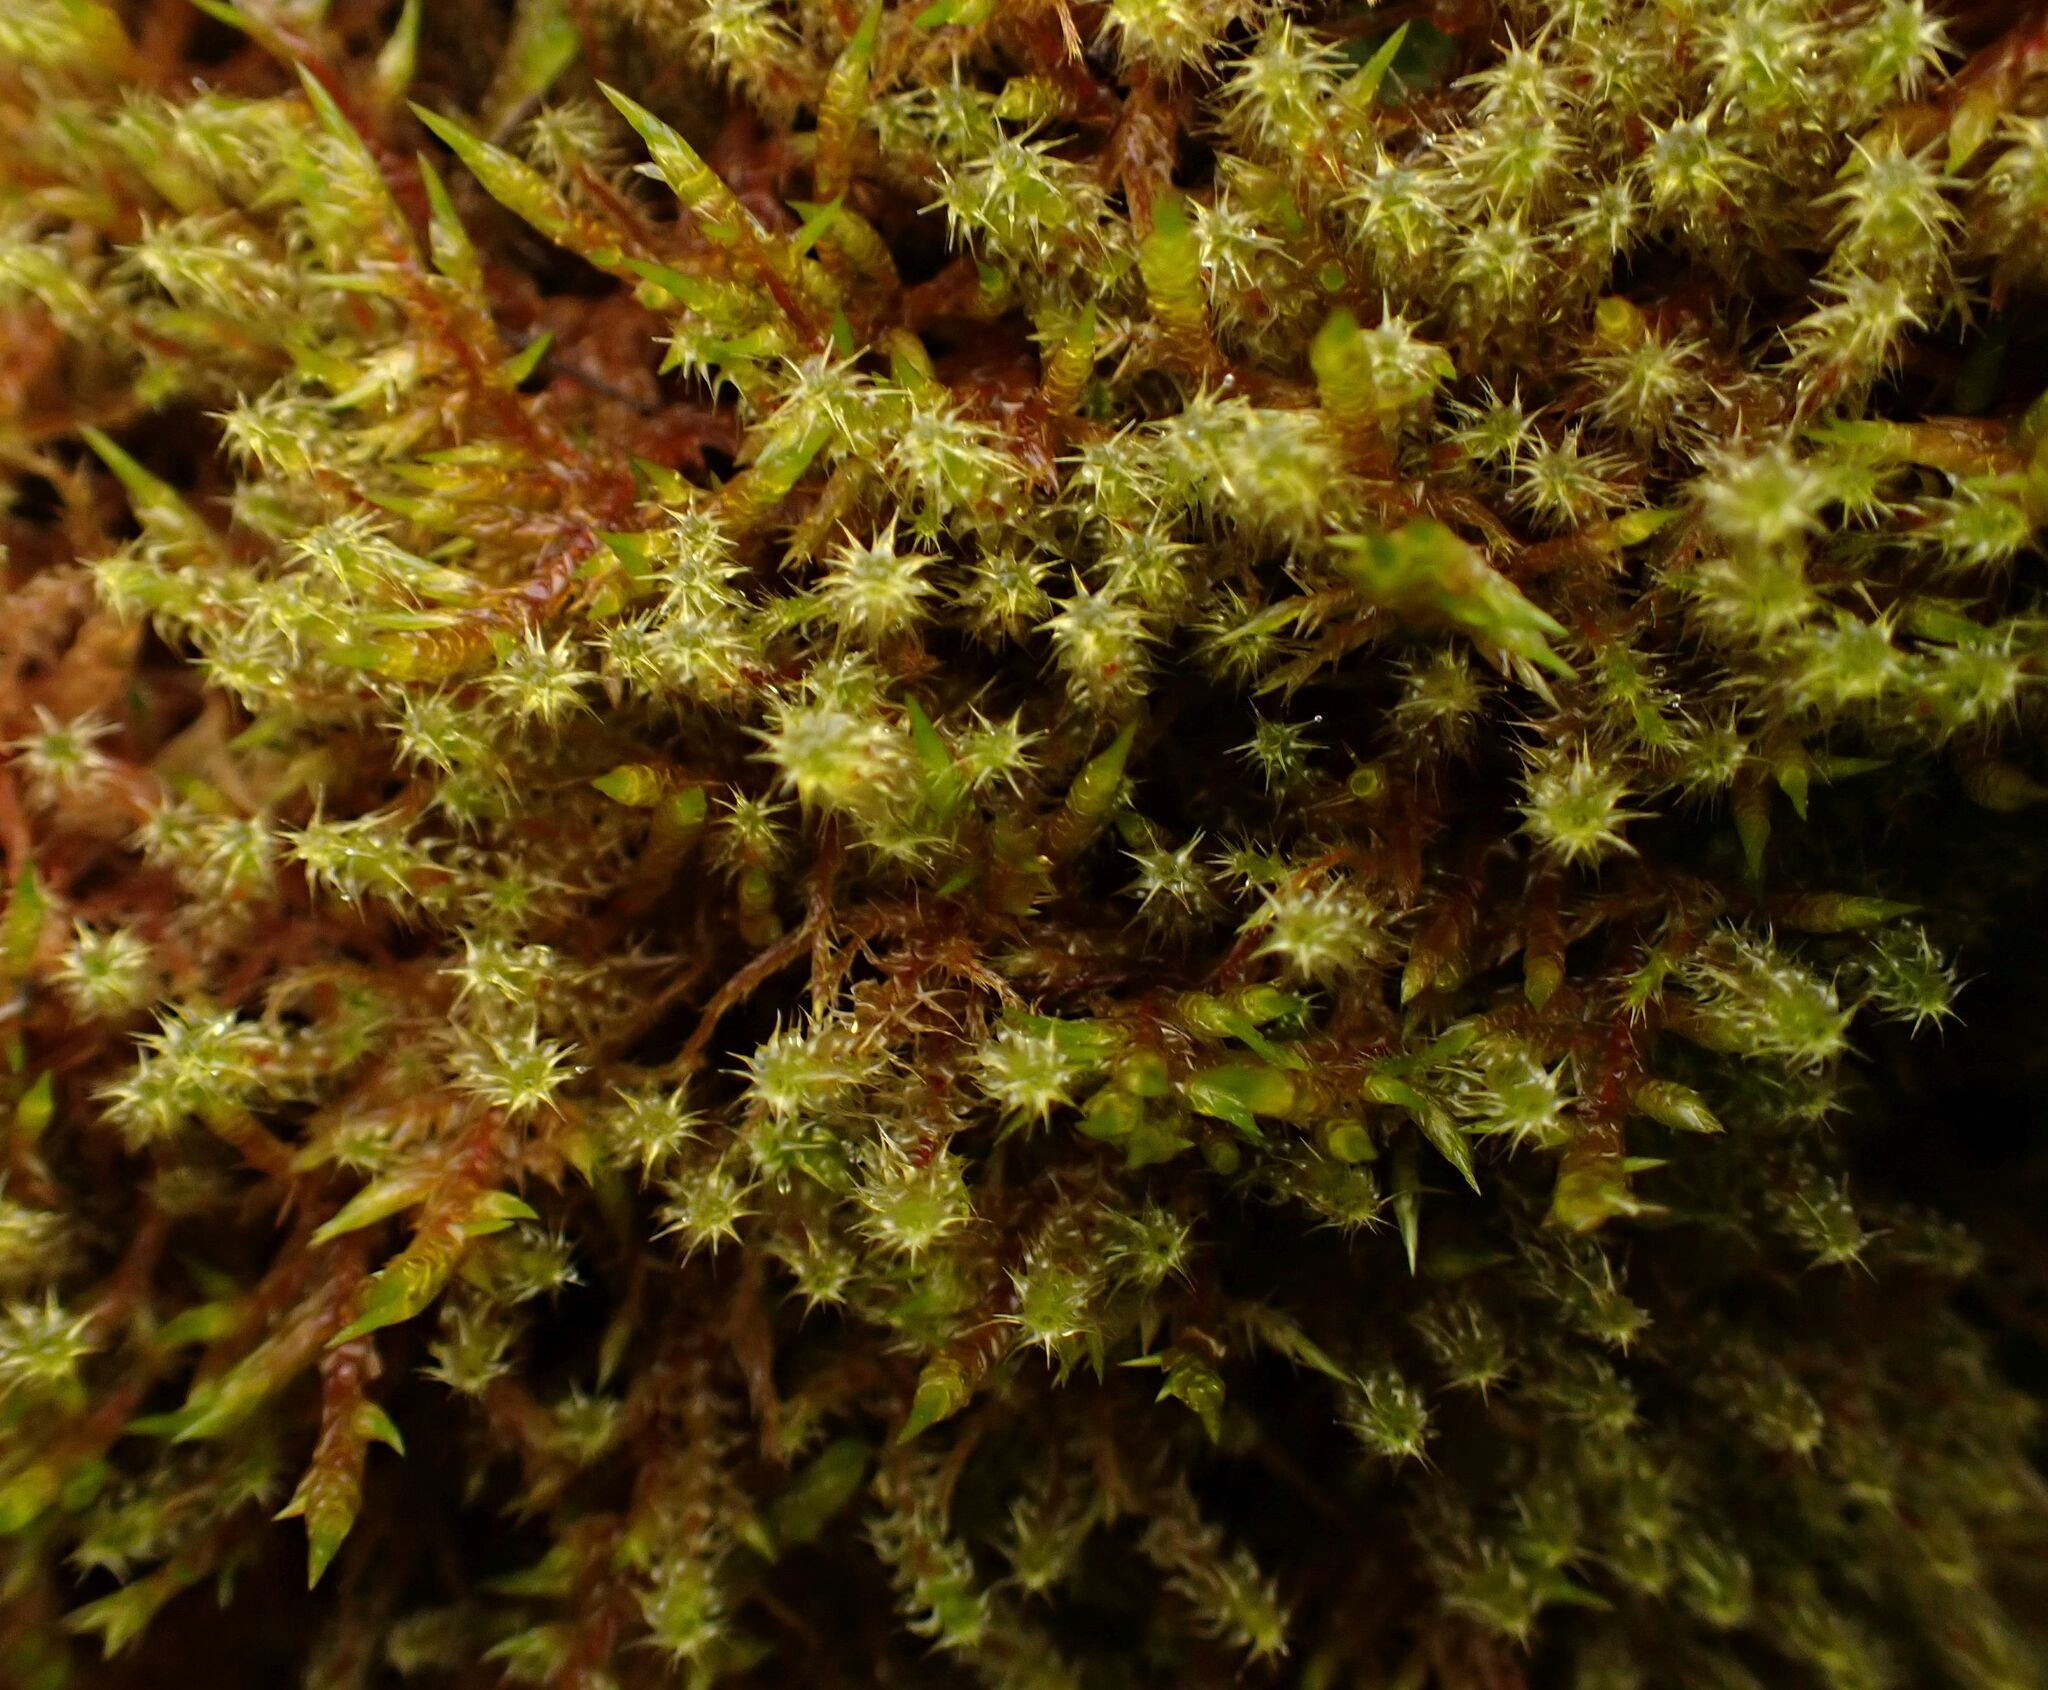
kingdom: Plantae
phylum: Bryophyta
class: Bryopsida
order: Hypnales
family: Hylocomiaceae
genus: Rhytidiadelphus
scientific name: Rhytidiadelphus squarrosus
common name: Springy turf-moss
